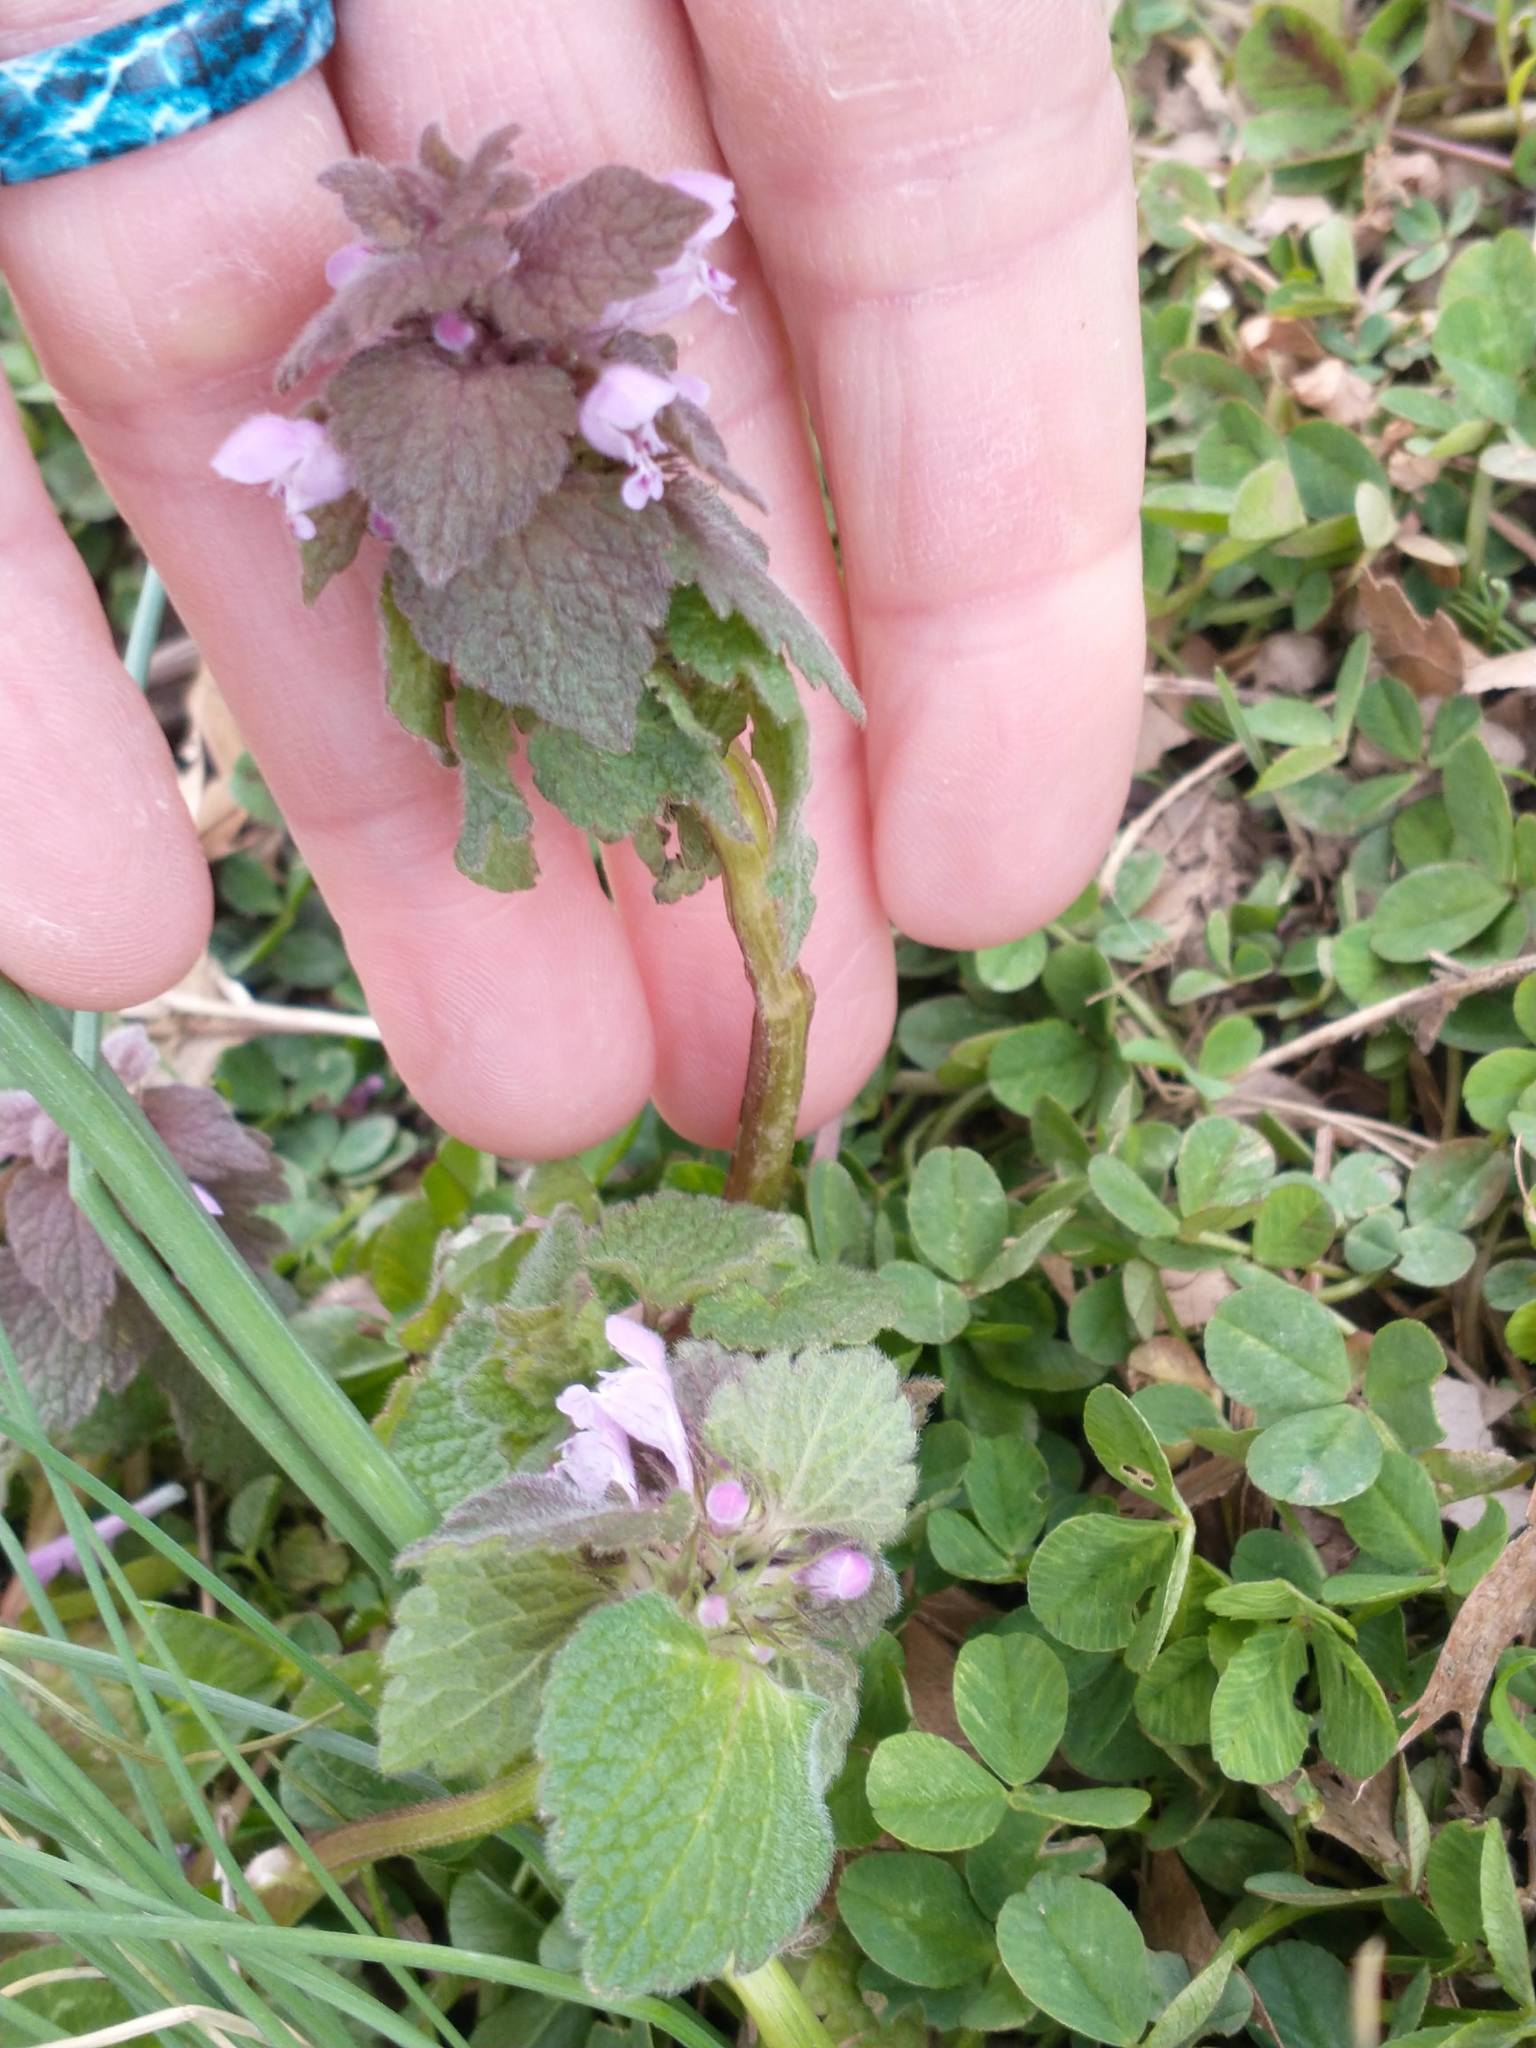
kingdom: Plantae
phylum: Tracheophyta
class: Magnoliopsida
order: Lamiales
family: Lamiaceae
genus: Lamium
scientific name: Lamium purpureum
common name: Red dead-nettle
